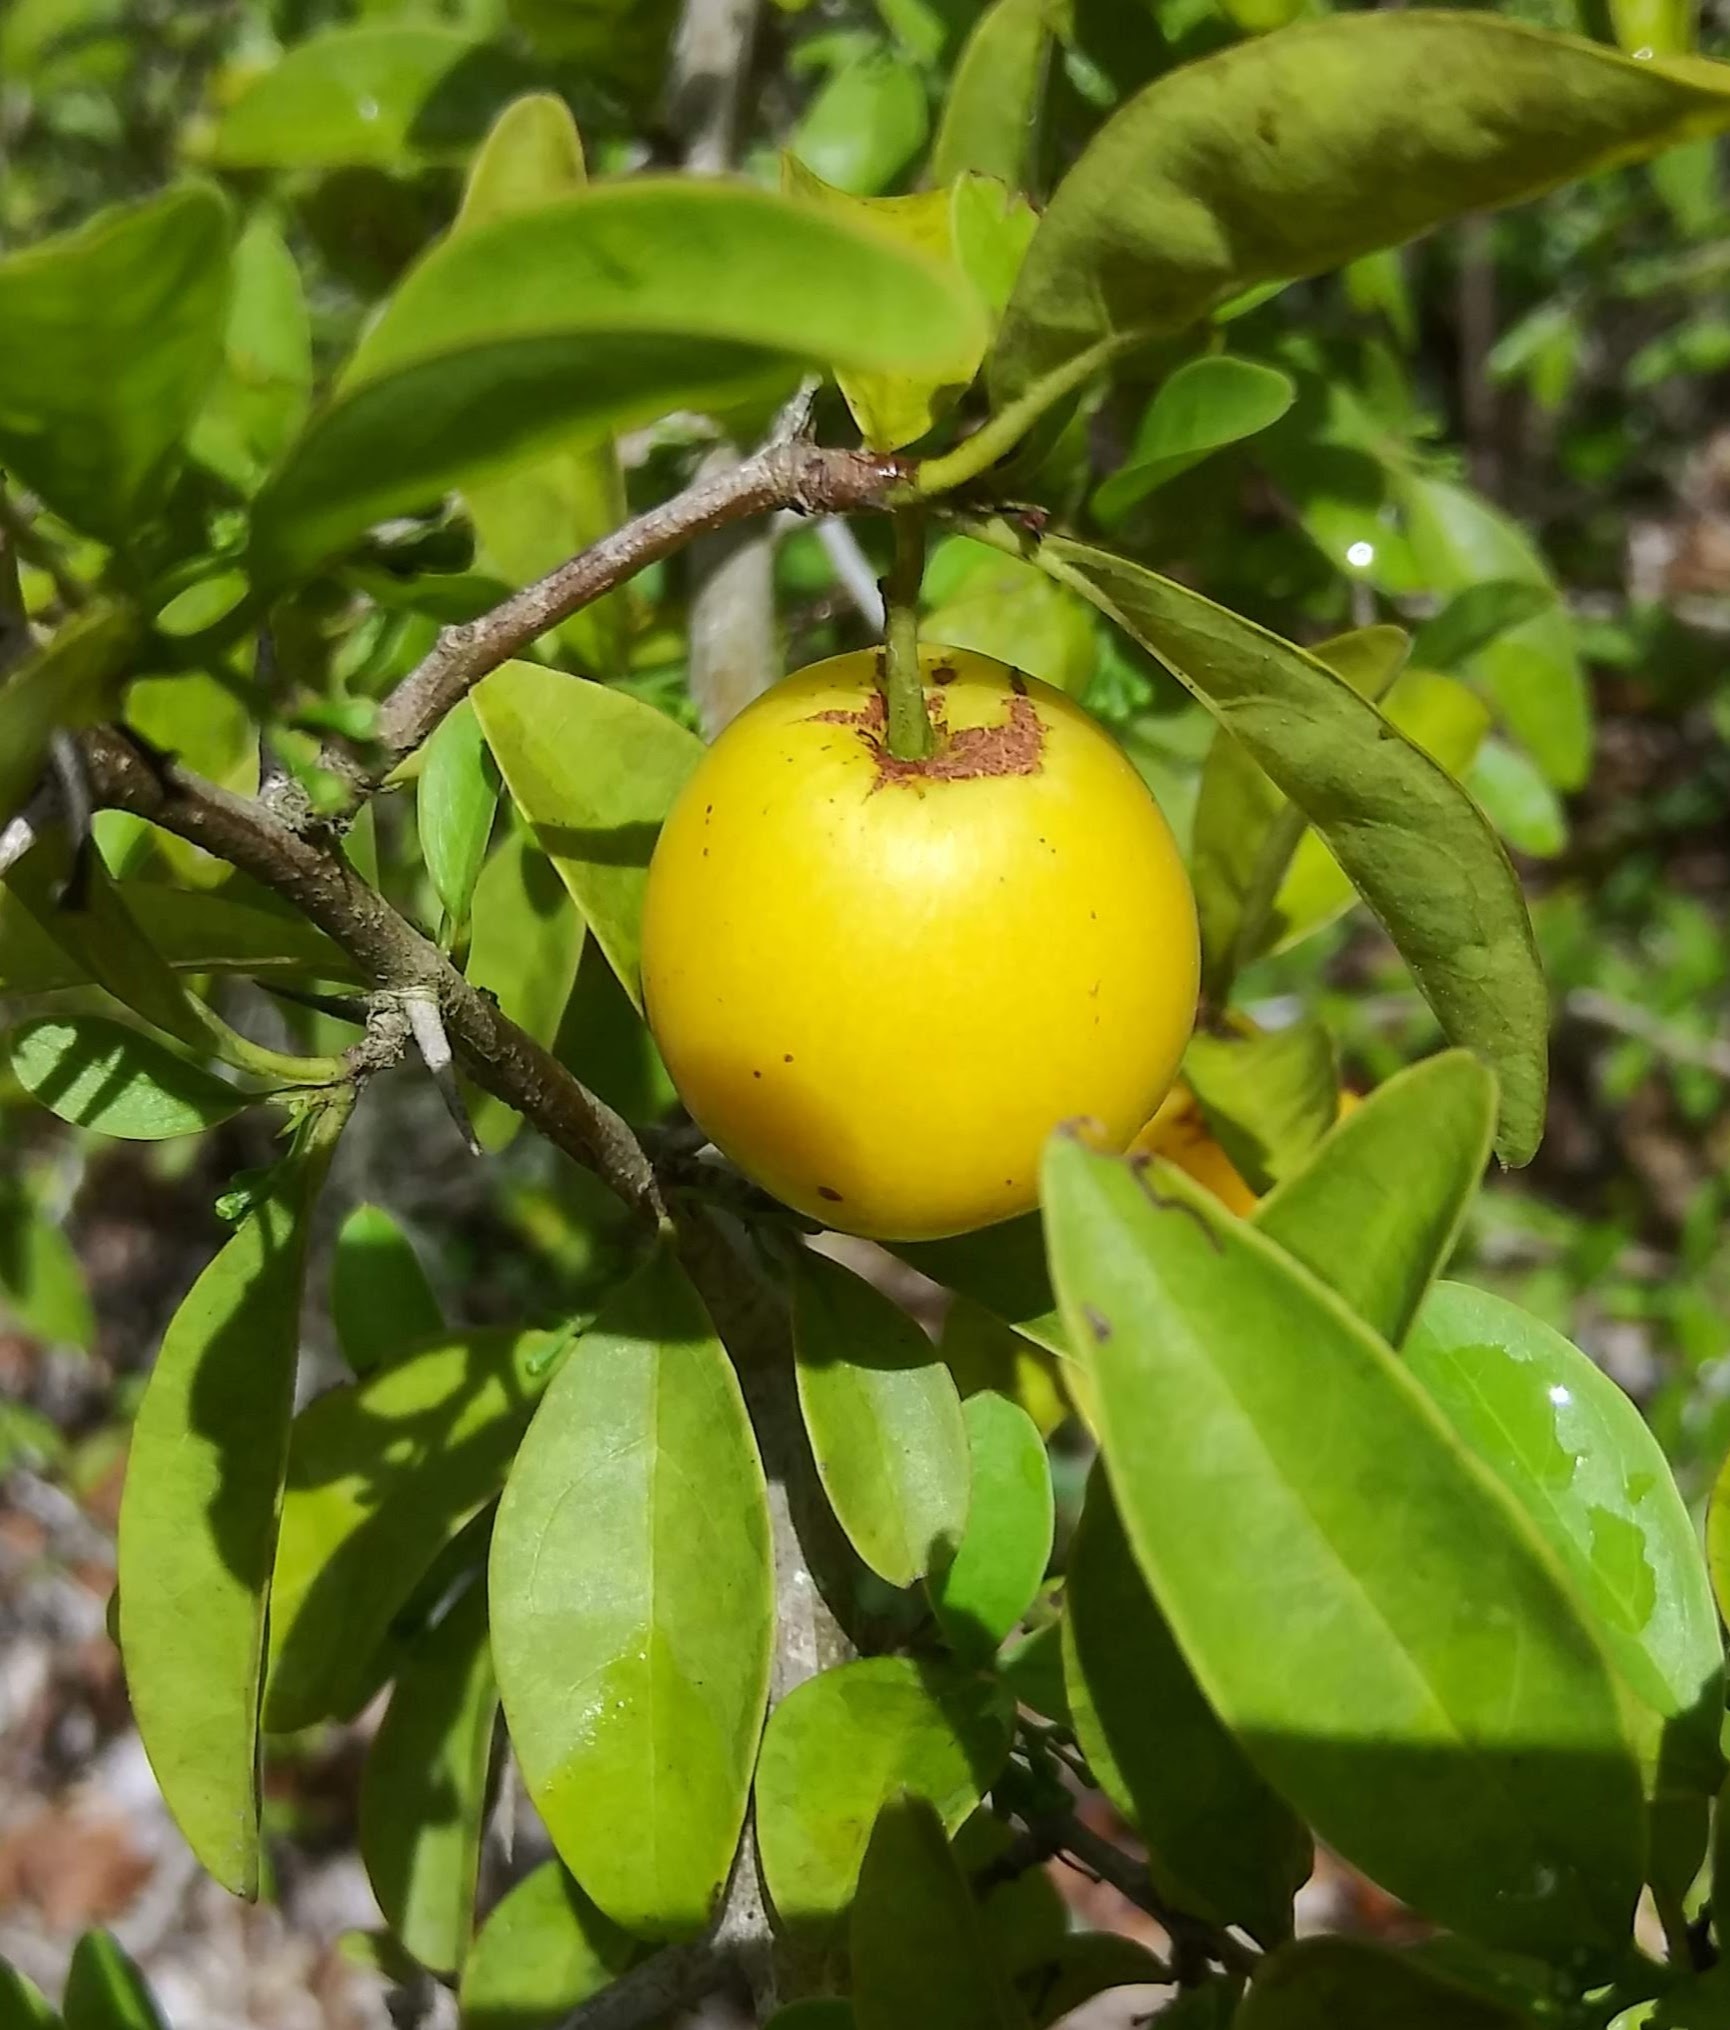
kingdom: Plantae
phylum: Tracheophyta
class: Magnoliopsida
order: Santalales
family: Ximeniaceae
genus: Ximenia
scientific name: Ximenia americana
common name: Tallowwood
